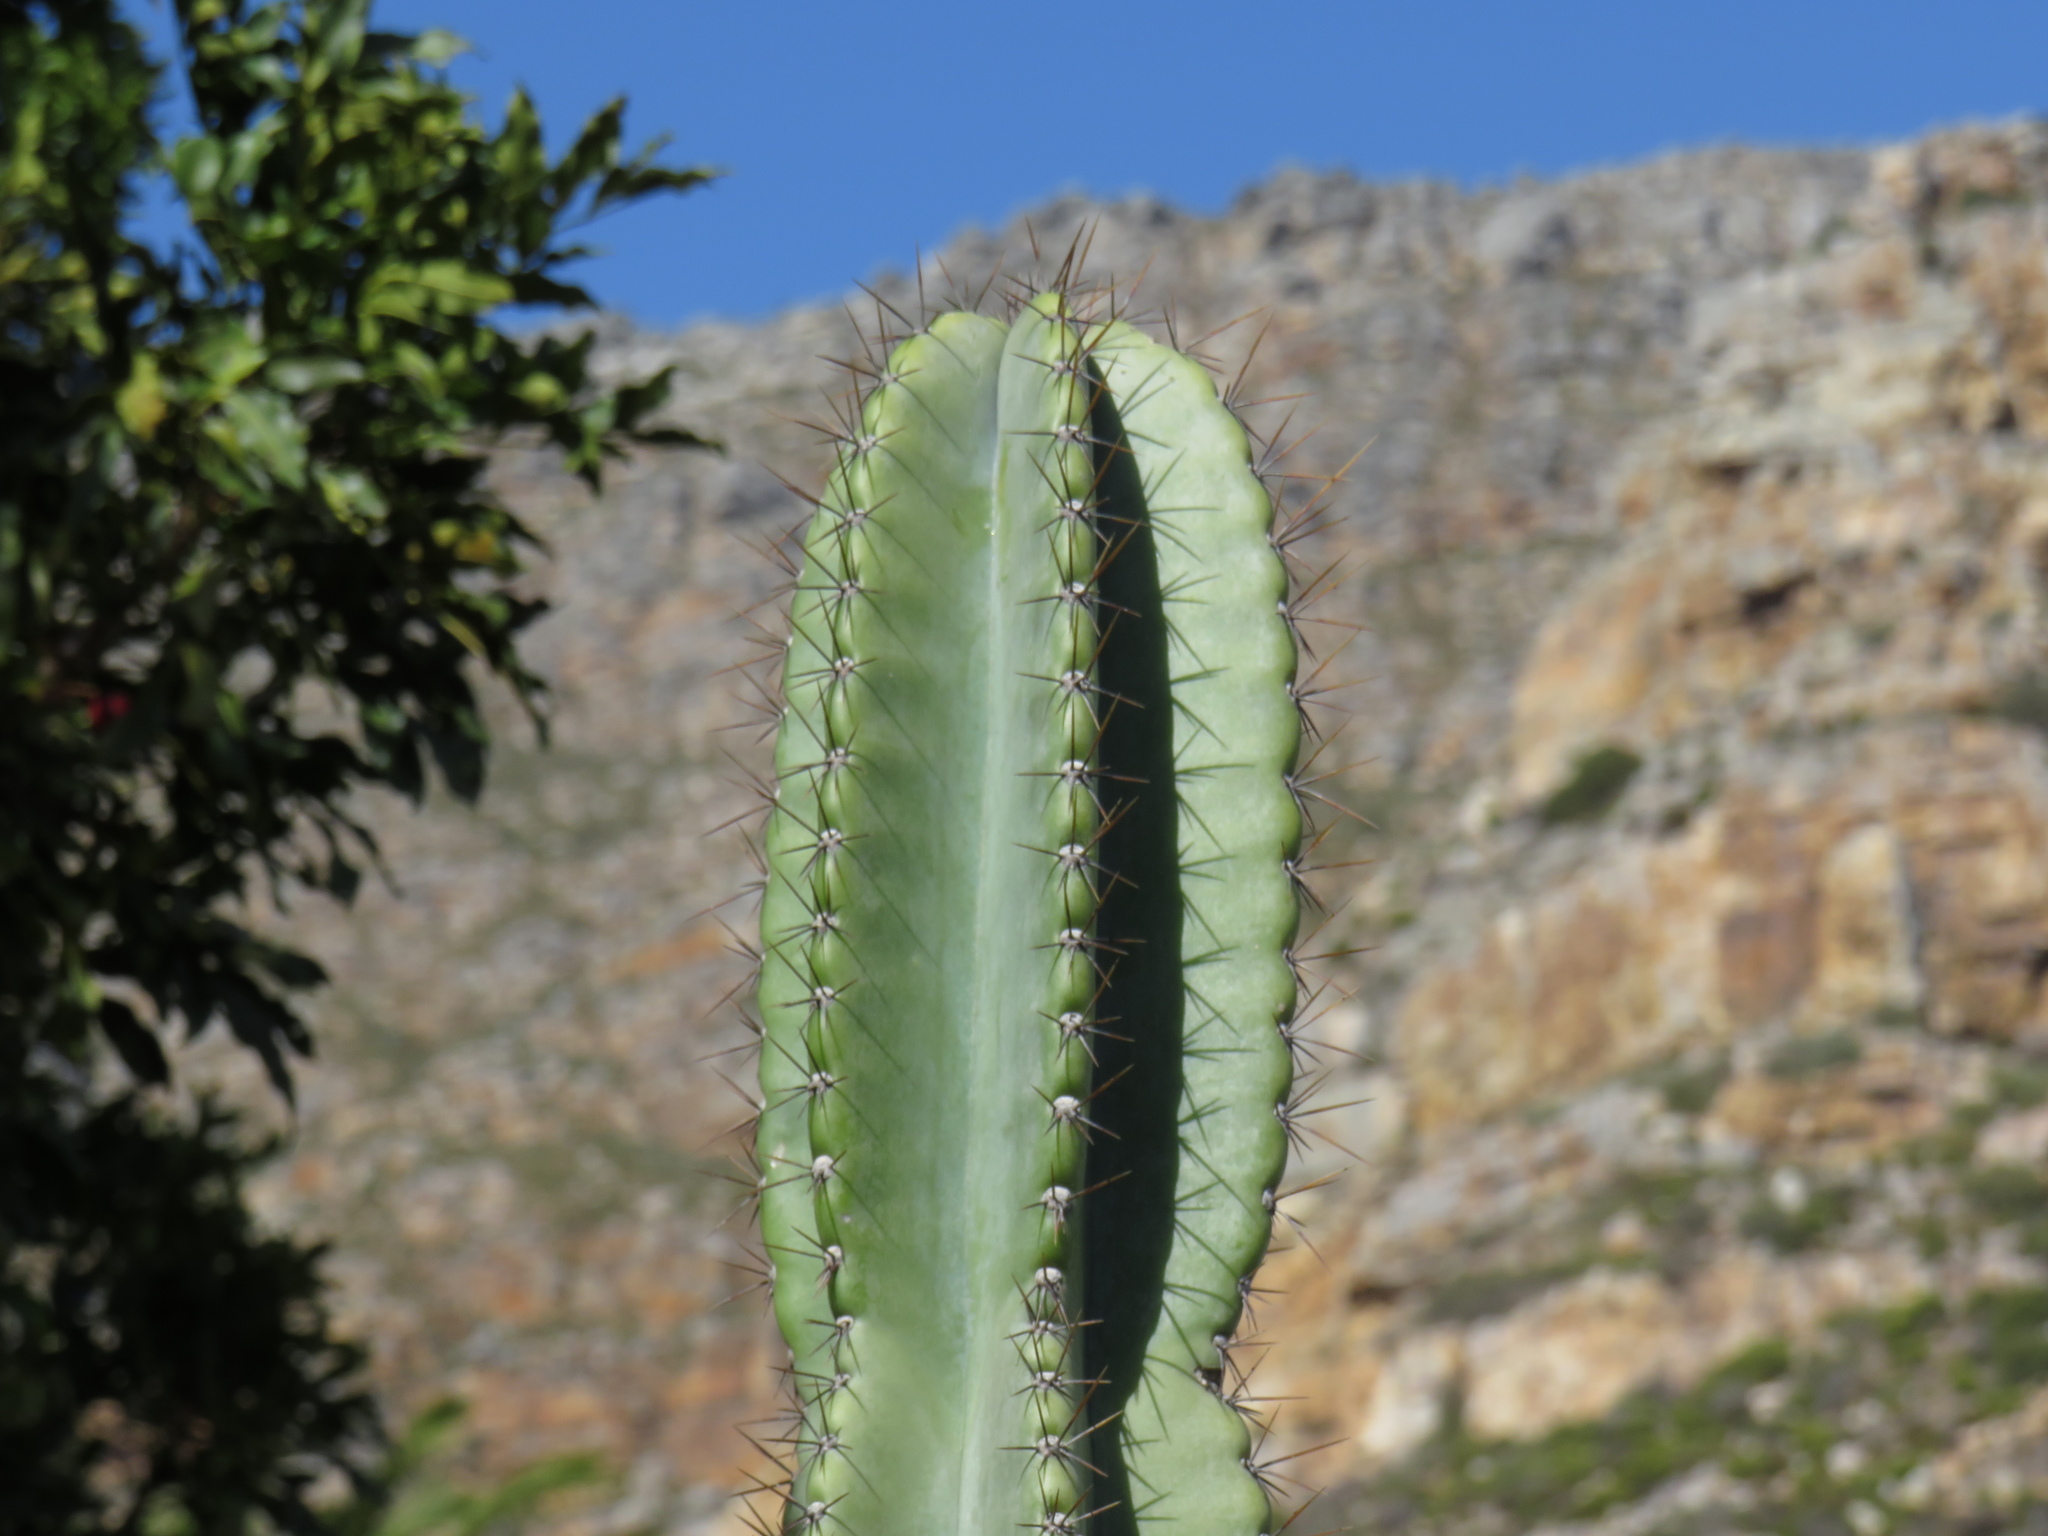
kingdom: Plantae
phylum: Tracheophyta
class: Magnoliopsida
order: Caryophyllales
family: Cactaceae
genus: Cereus
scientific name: Cereus jamacaru
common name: Queen-of-the-night
